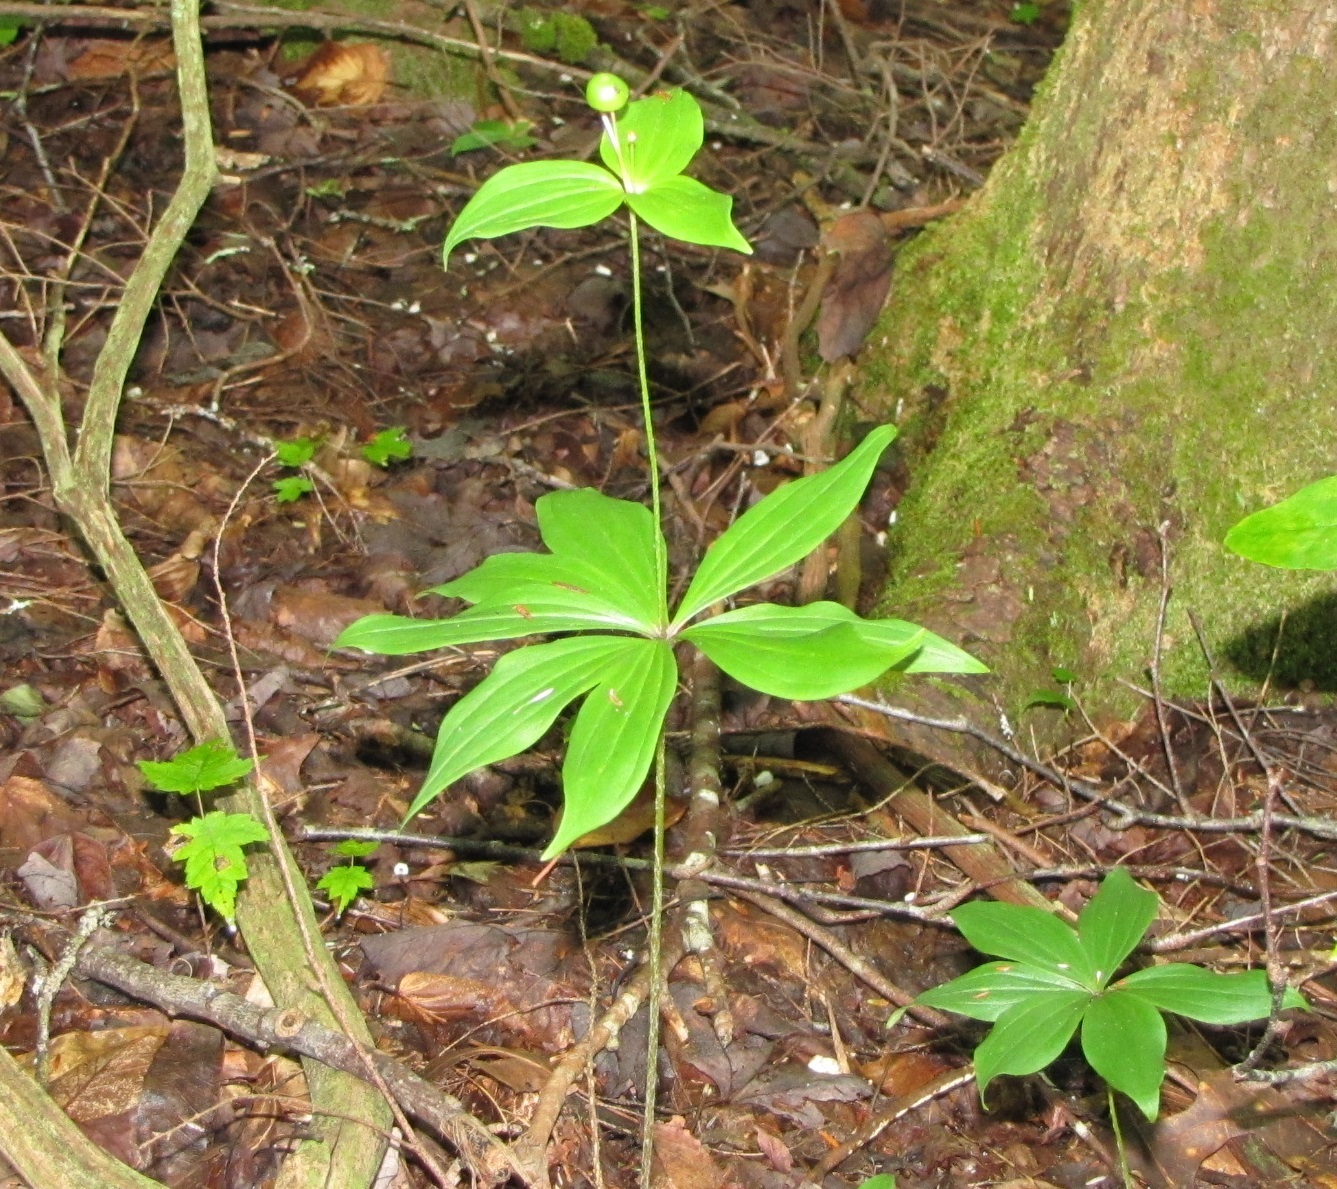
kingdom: Plantae
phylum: Tracheophyta
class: Liliopsida
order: Liliales
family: Liliaceae
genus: Medeola
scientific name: Medeola virginiana
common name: Indian cucumber-root
